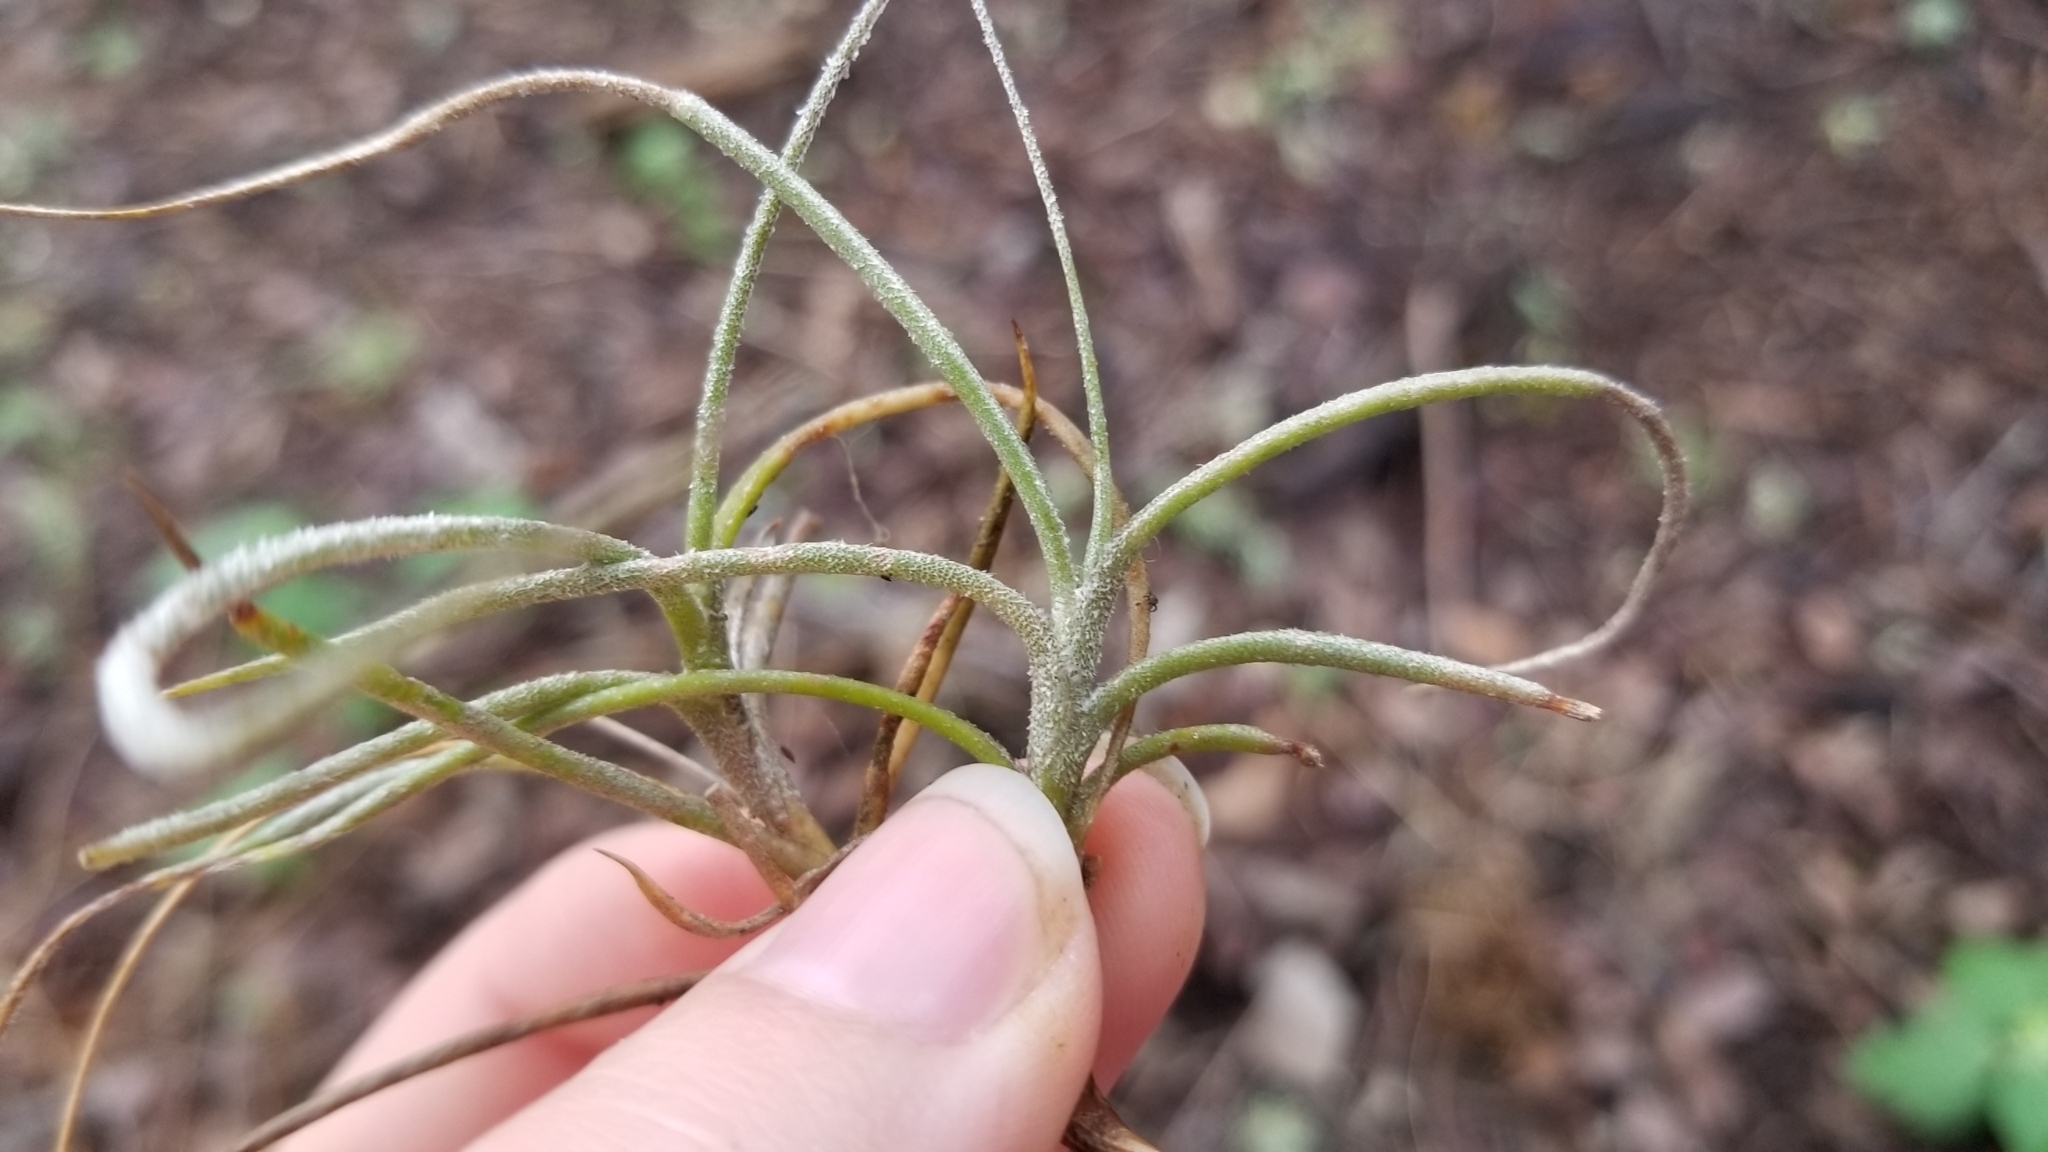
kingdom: Plantae
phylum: Tracheophyta
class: Liliopsida
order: Poales
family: Bromeliaceae
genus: Tillandsia
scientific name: Tillandsia recurvata
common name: Small ballmoss
